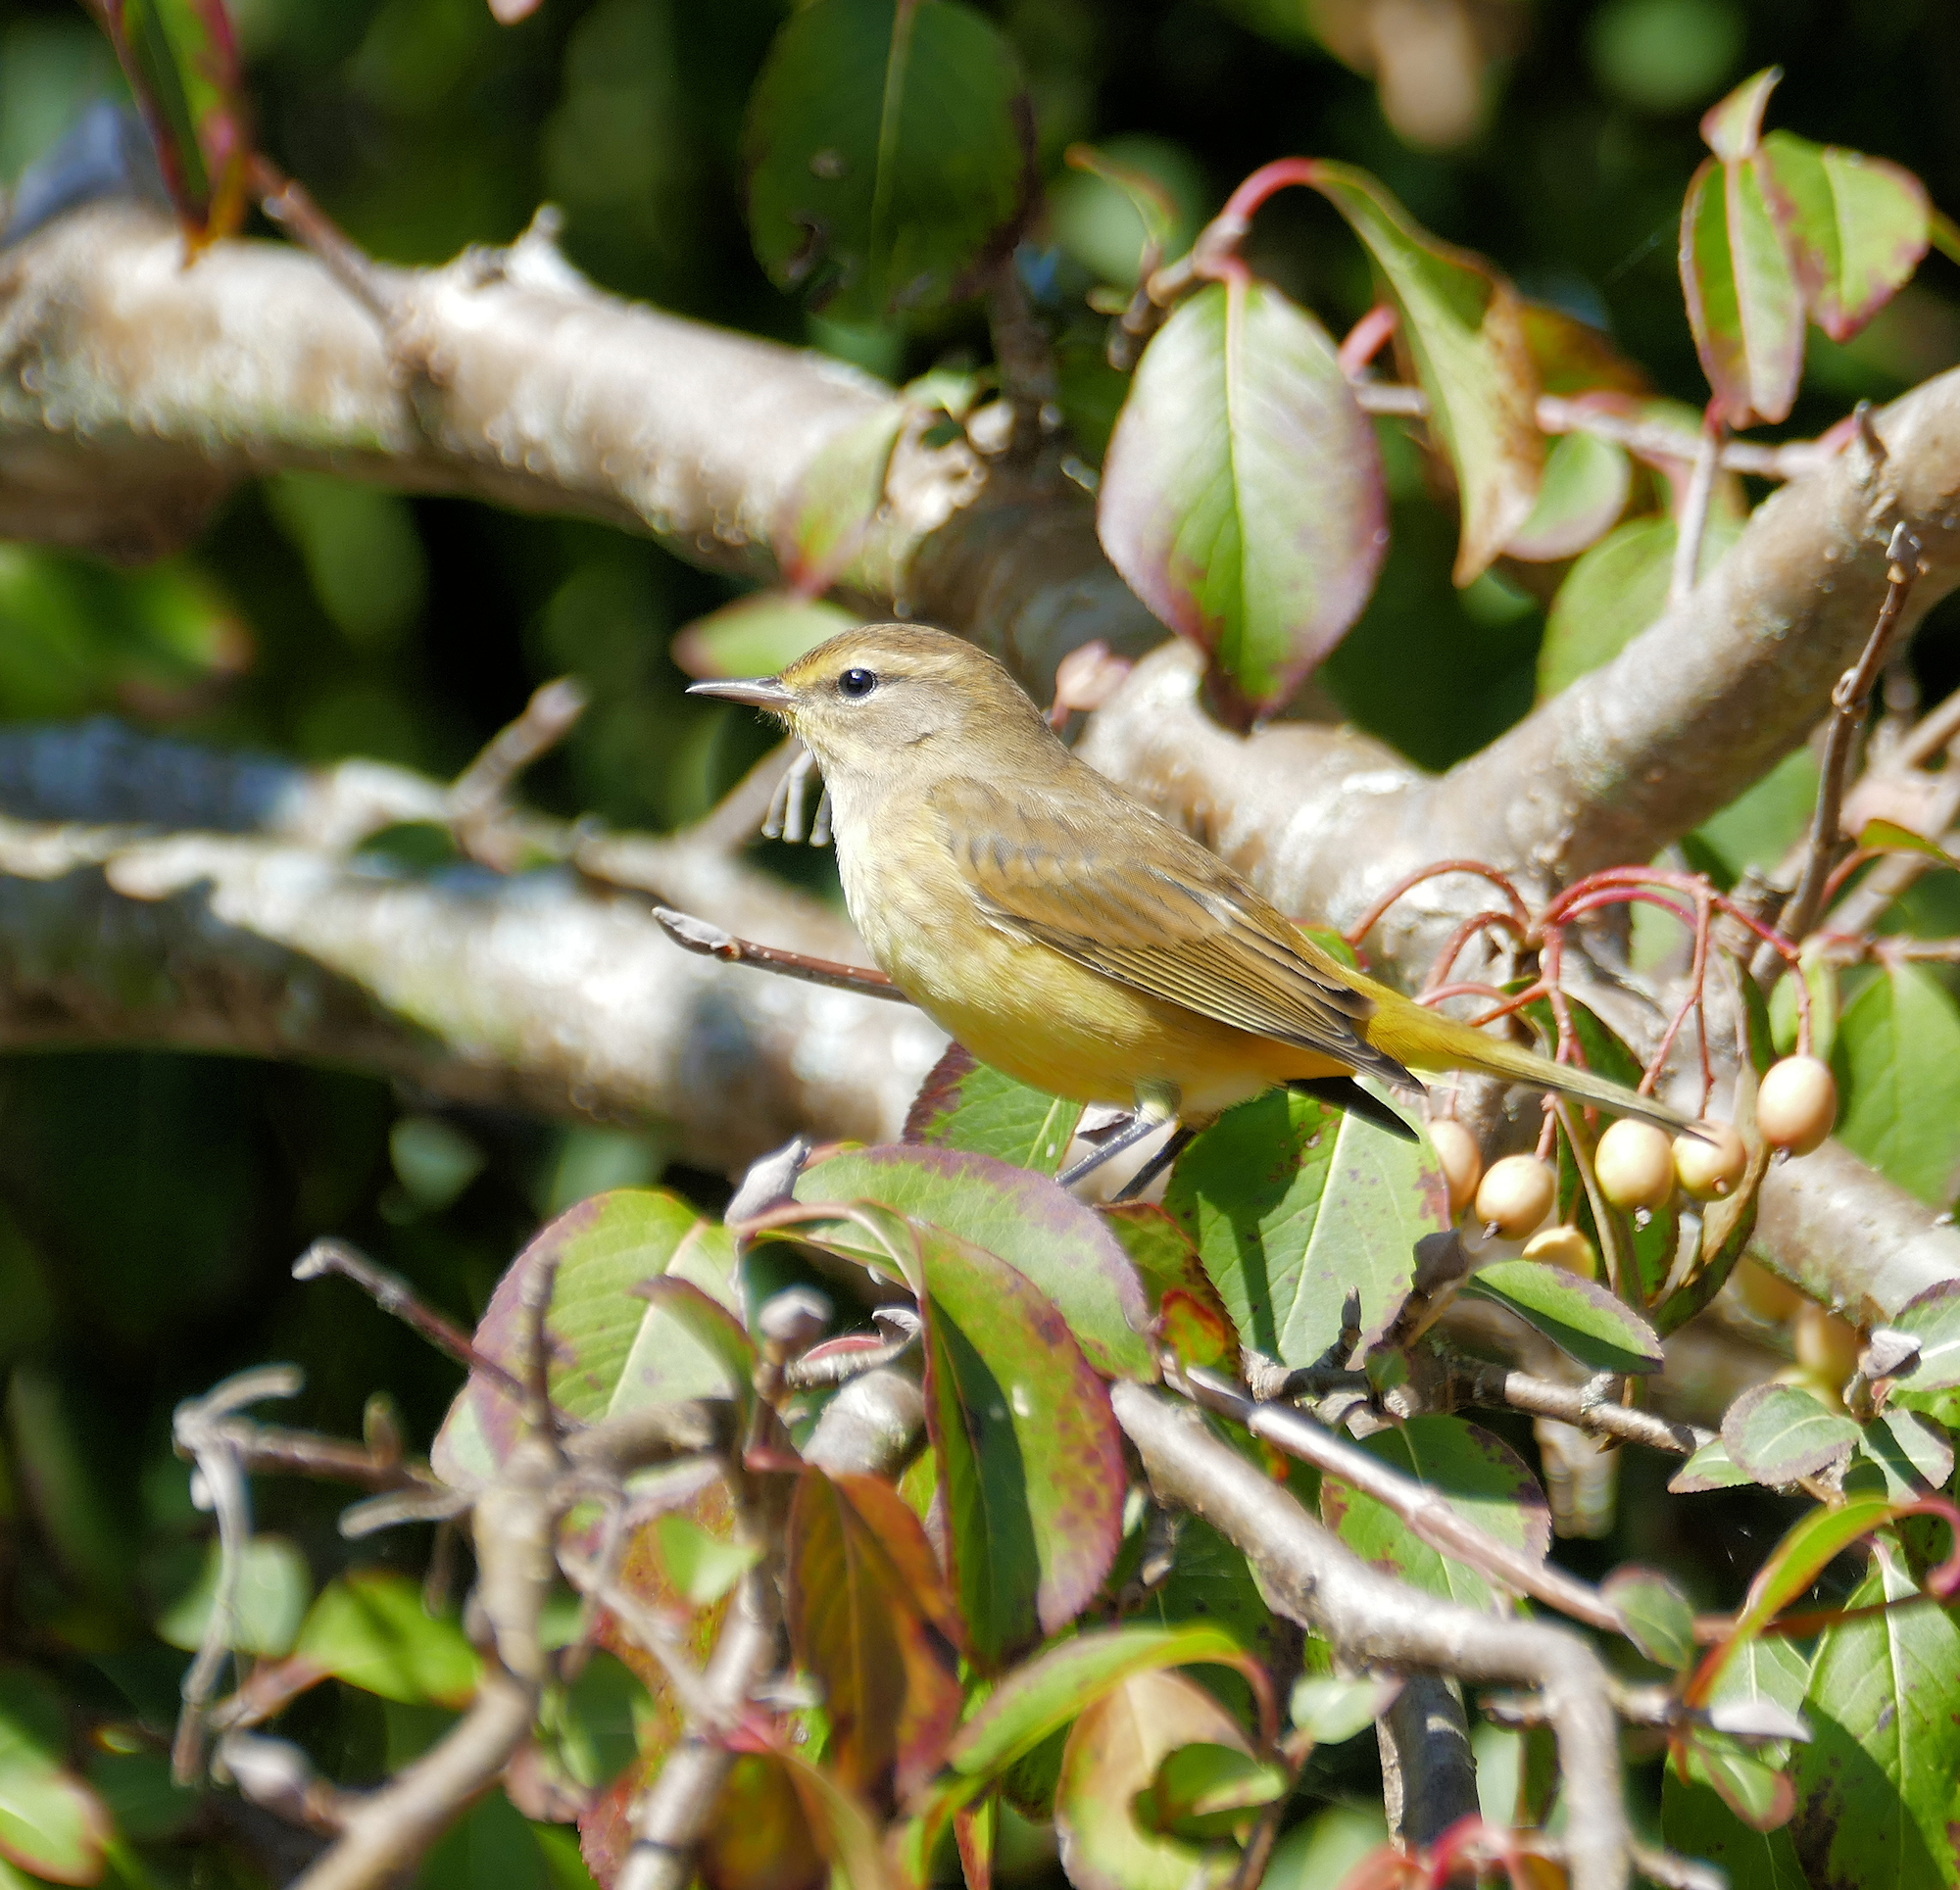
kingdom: Animalia
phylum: Chordata
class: Aves
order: Passeriformes
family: Parulidae
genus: Setophaga
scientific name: Setophaga palmarum
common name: Palm warbler
